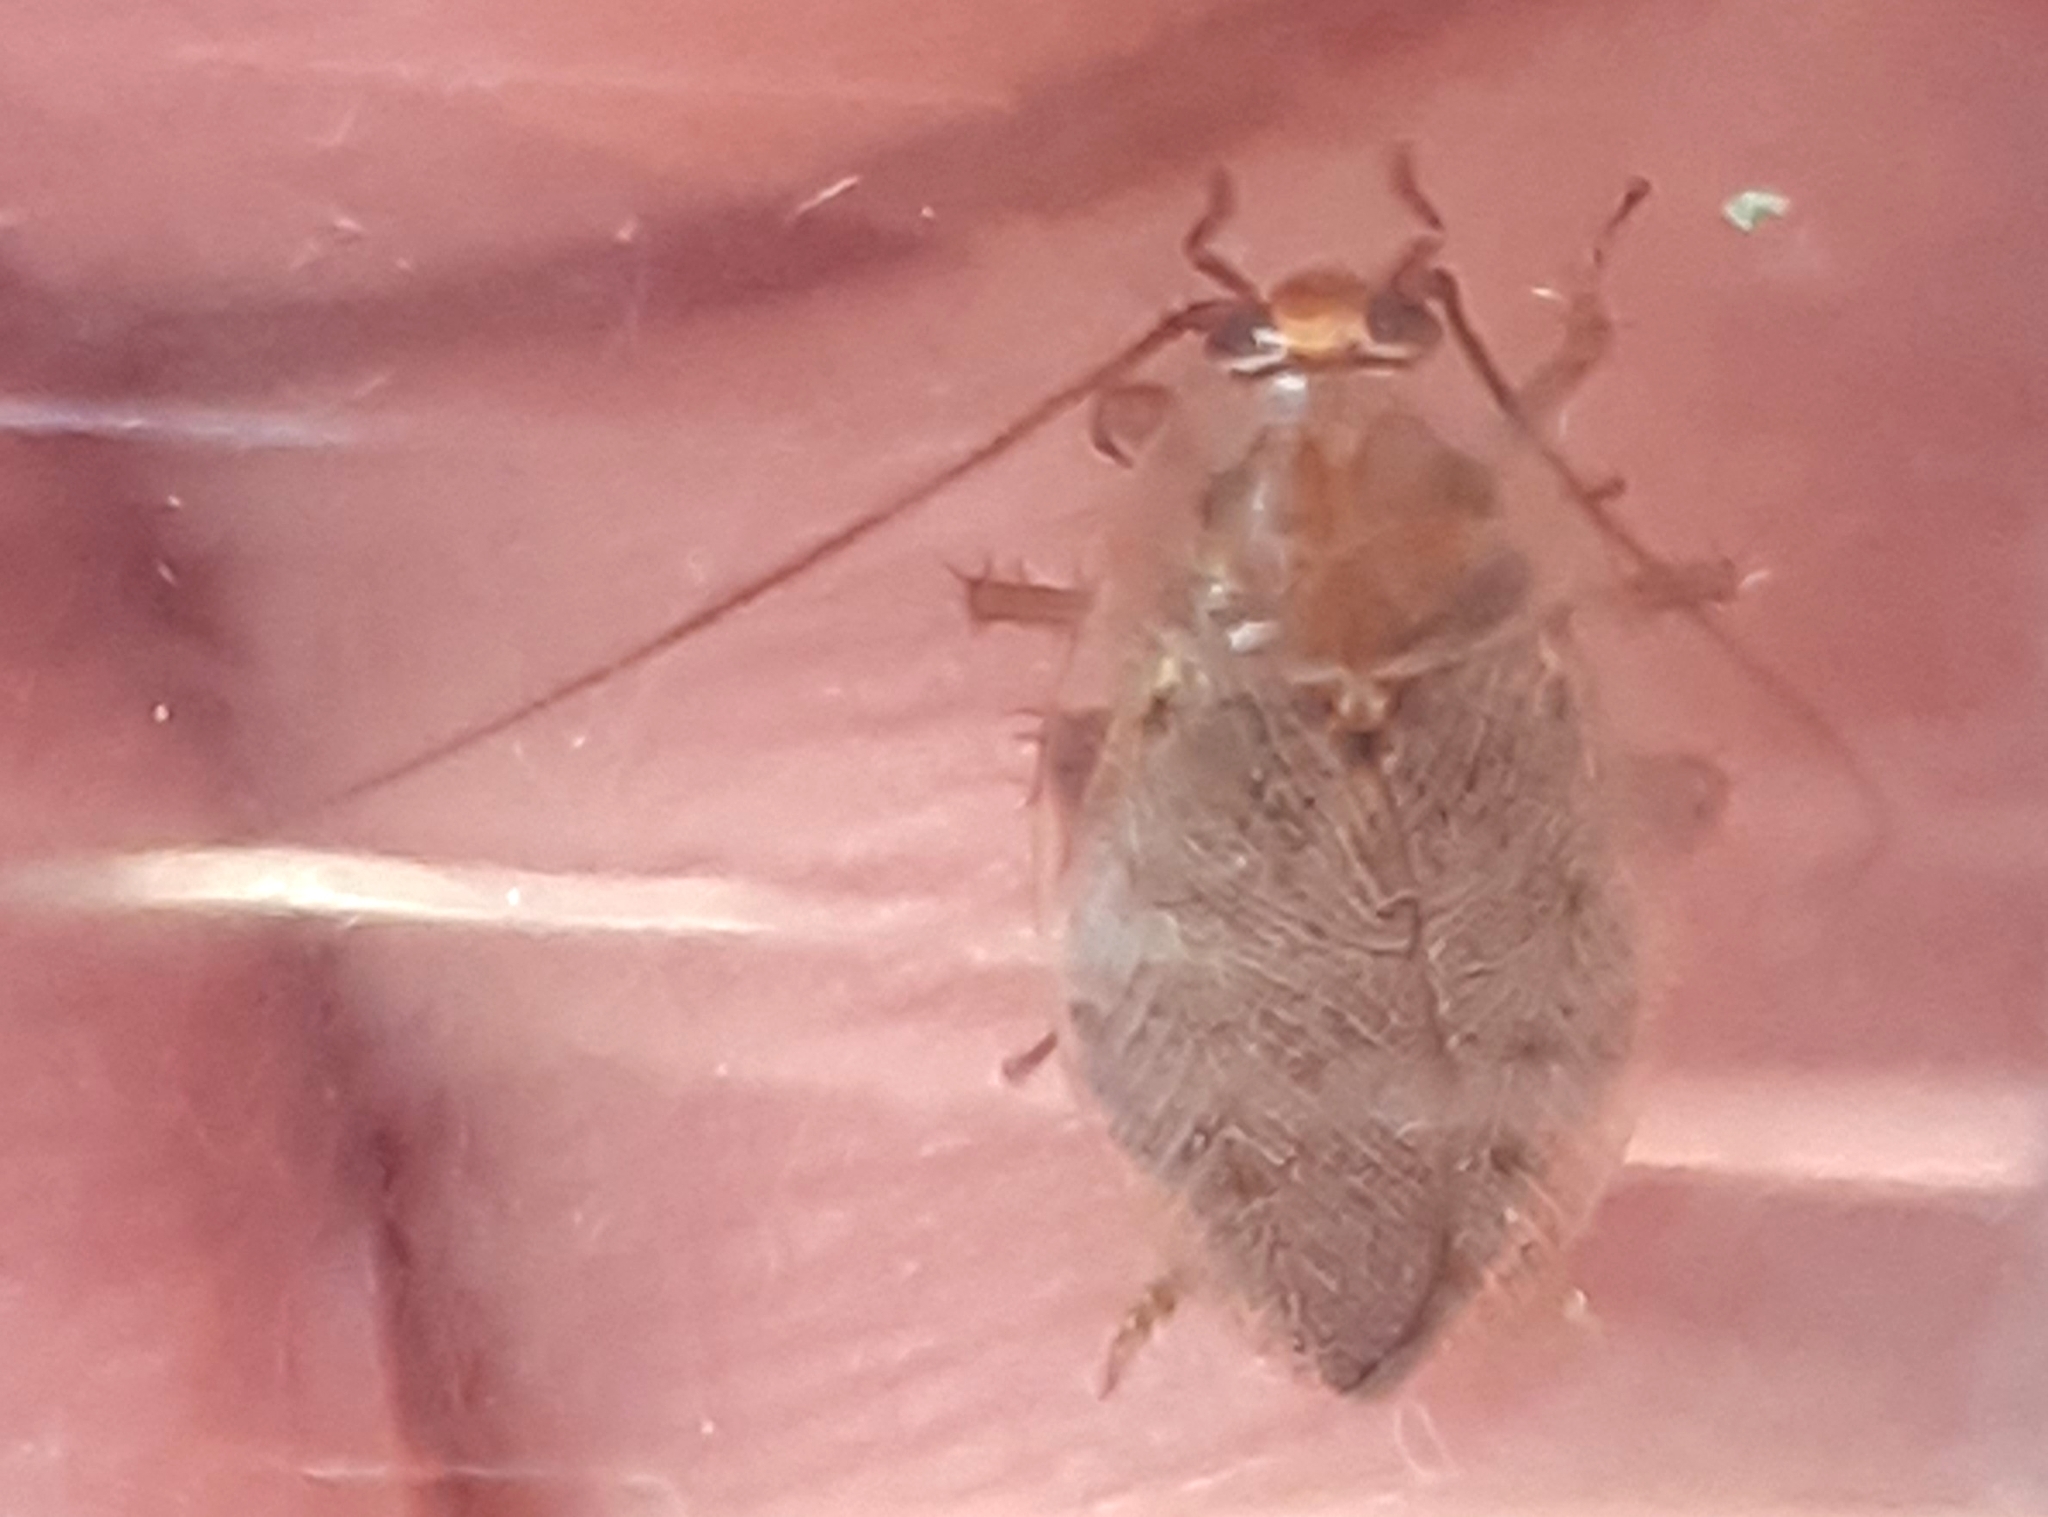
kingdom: Animalia
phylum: Arthropoda
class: Insecta
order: Blattodea
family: Ectobiidae
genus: Ectobius
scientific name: Ectobius vittiventris
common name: Garden cockroach
